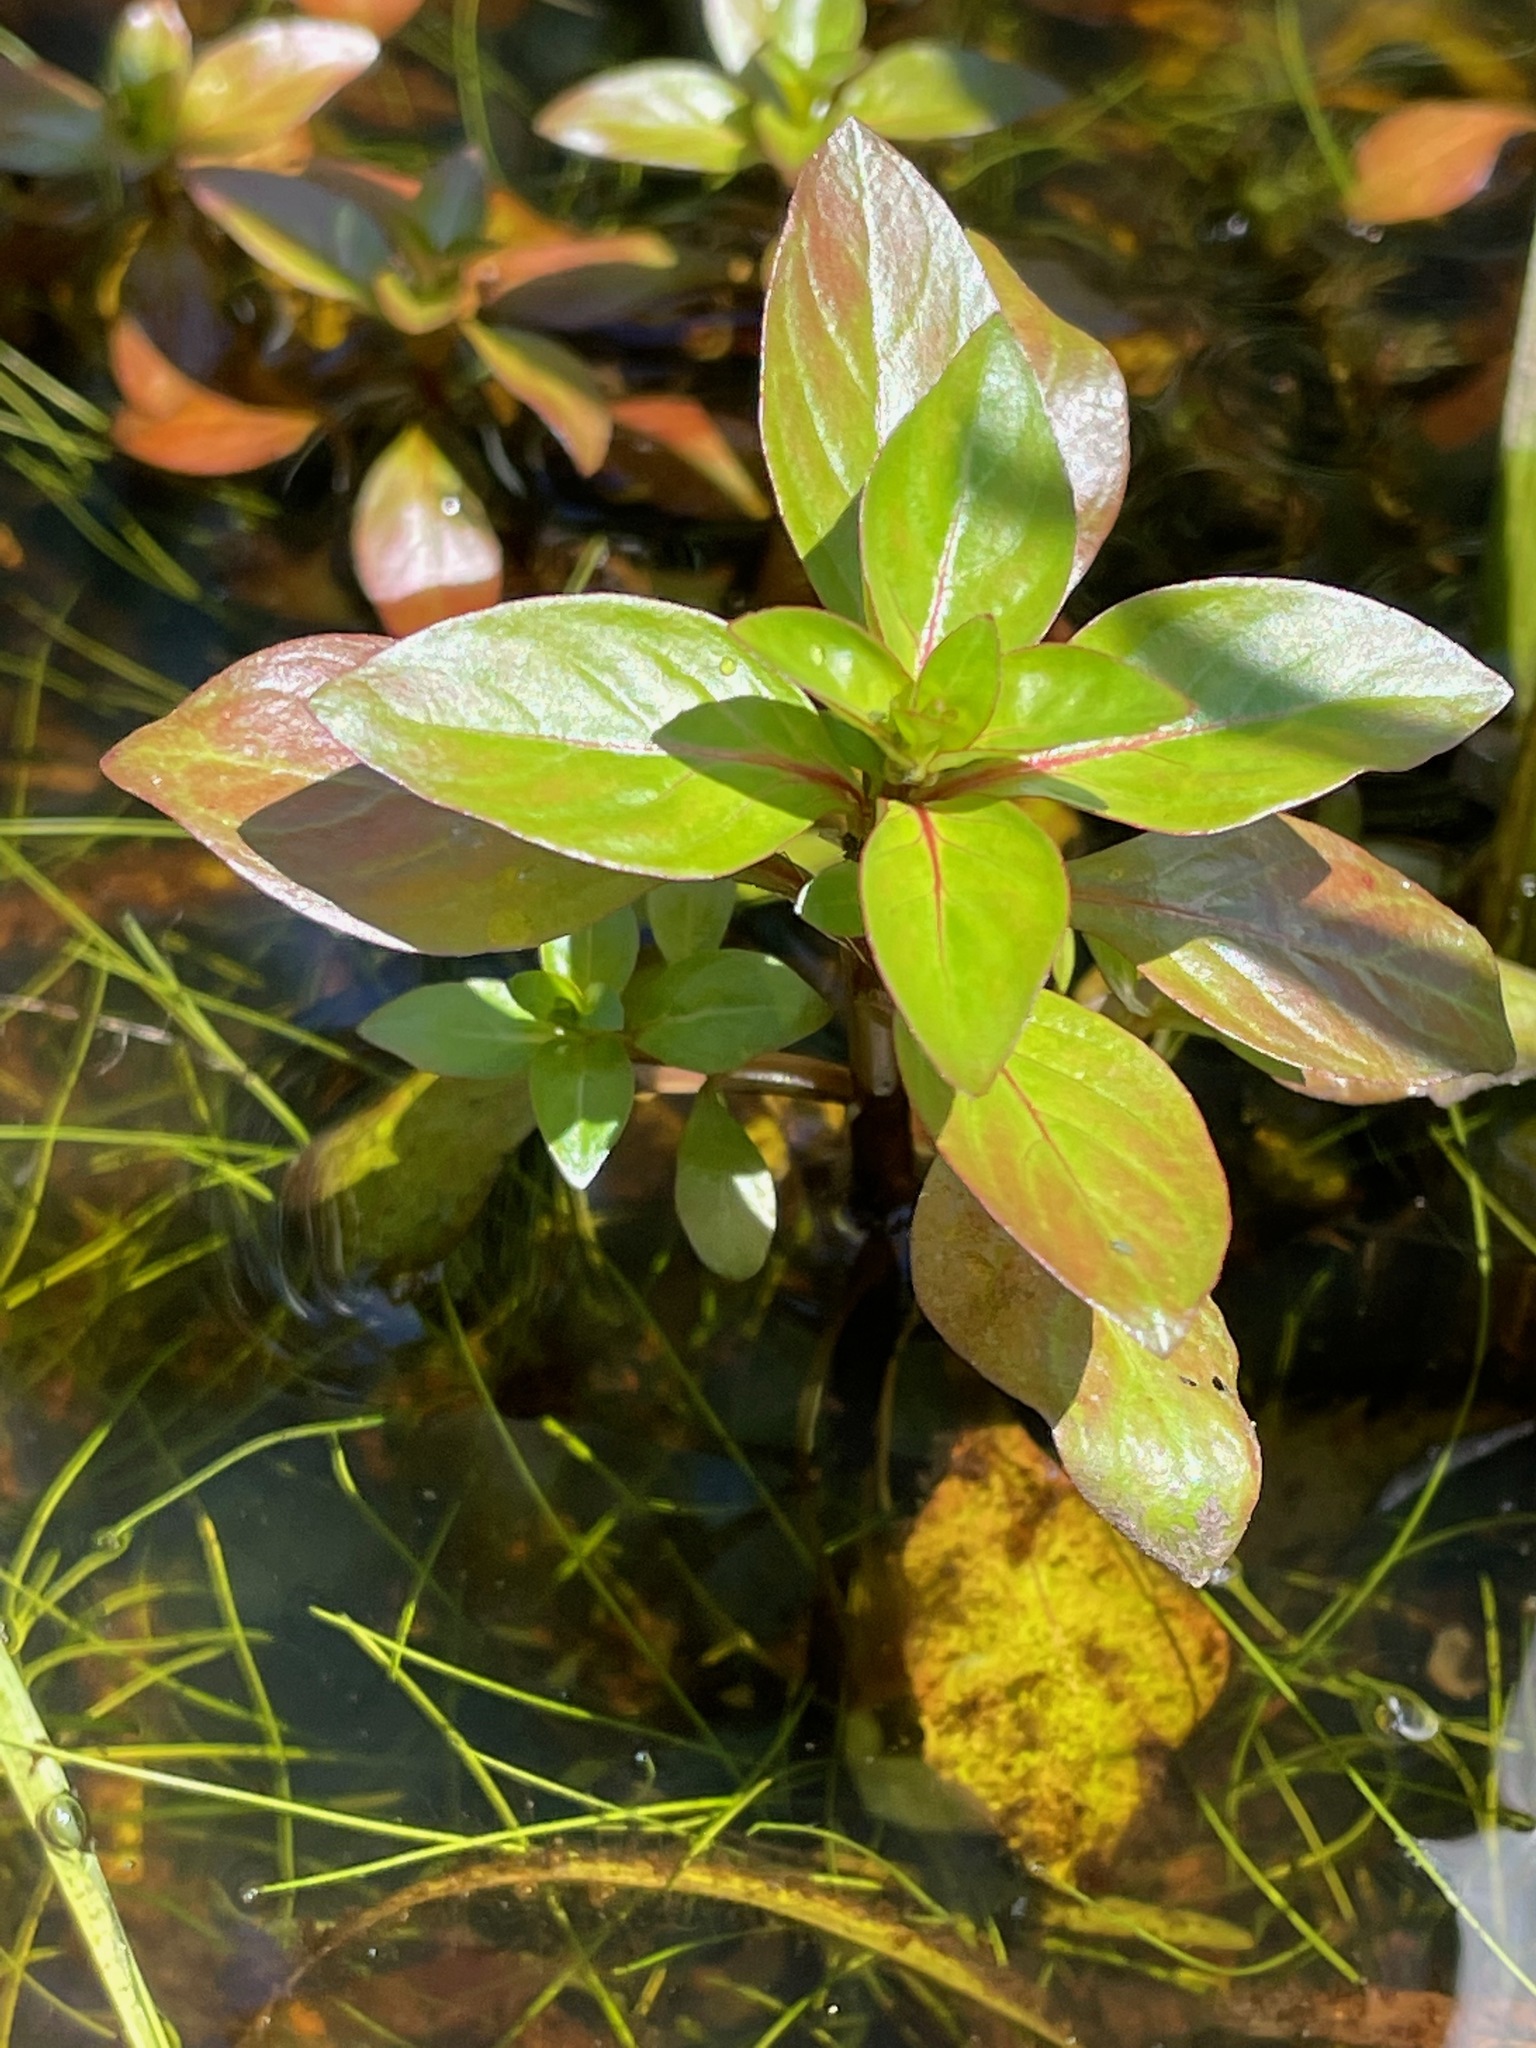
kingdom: Plantae
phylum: Tracheophyta
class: Magnoliopsida
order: Myrtales
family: Onagraceae
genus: Ludwigia
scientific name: Ludwigia palustris
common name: Hampshire-purslane
